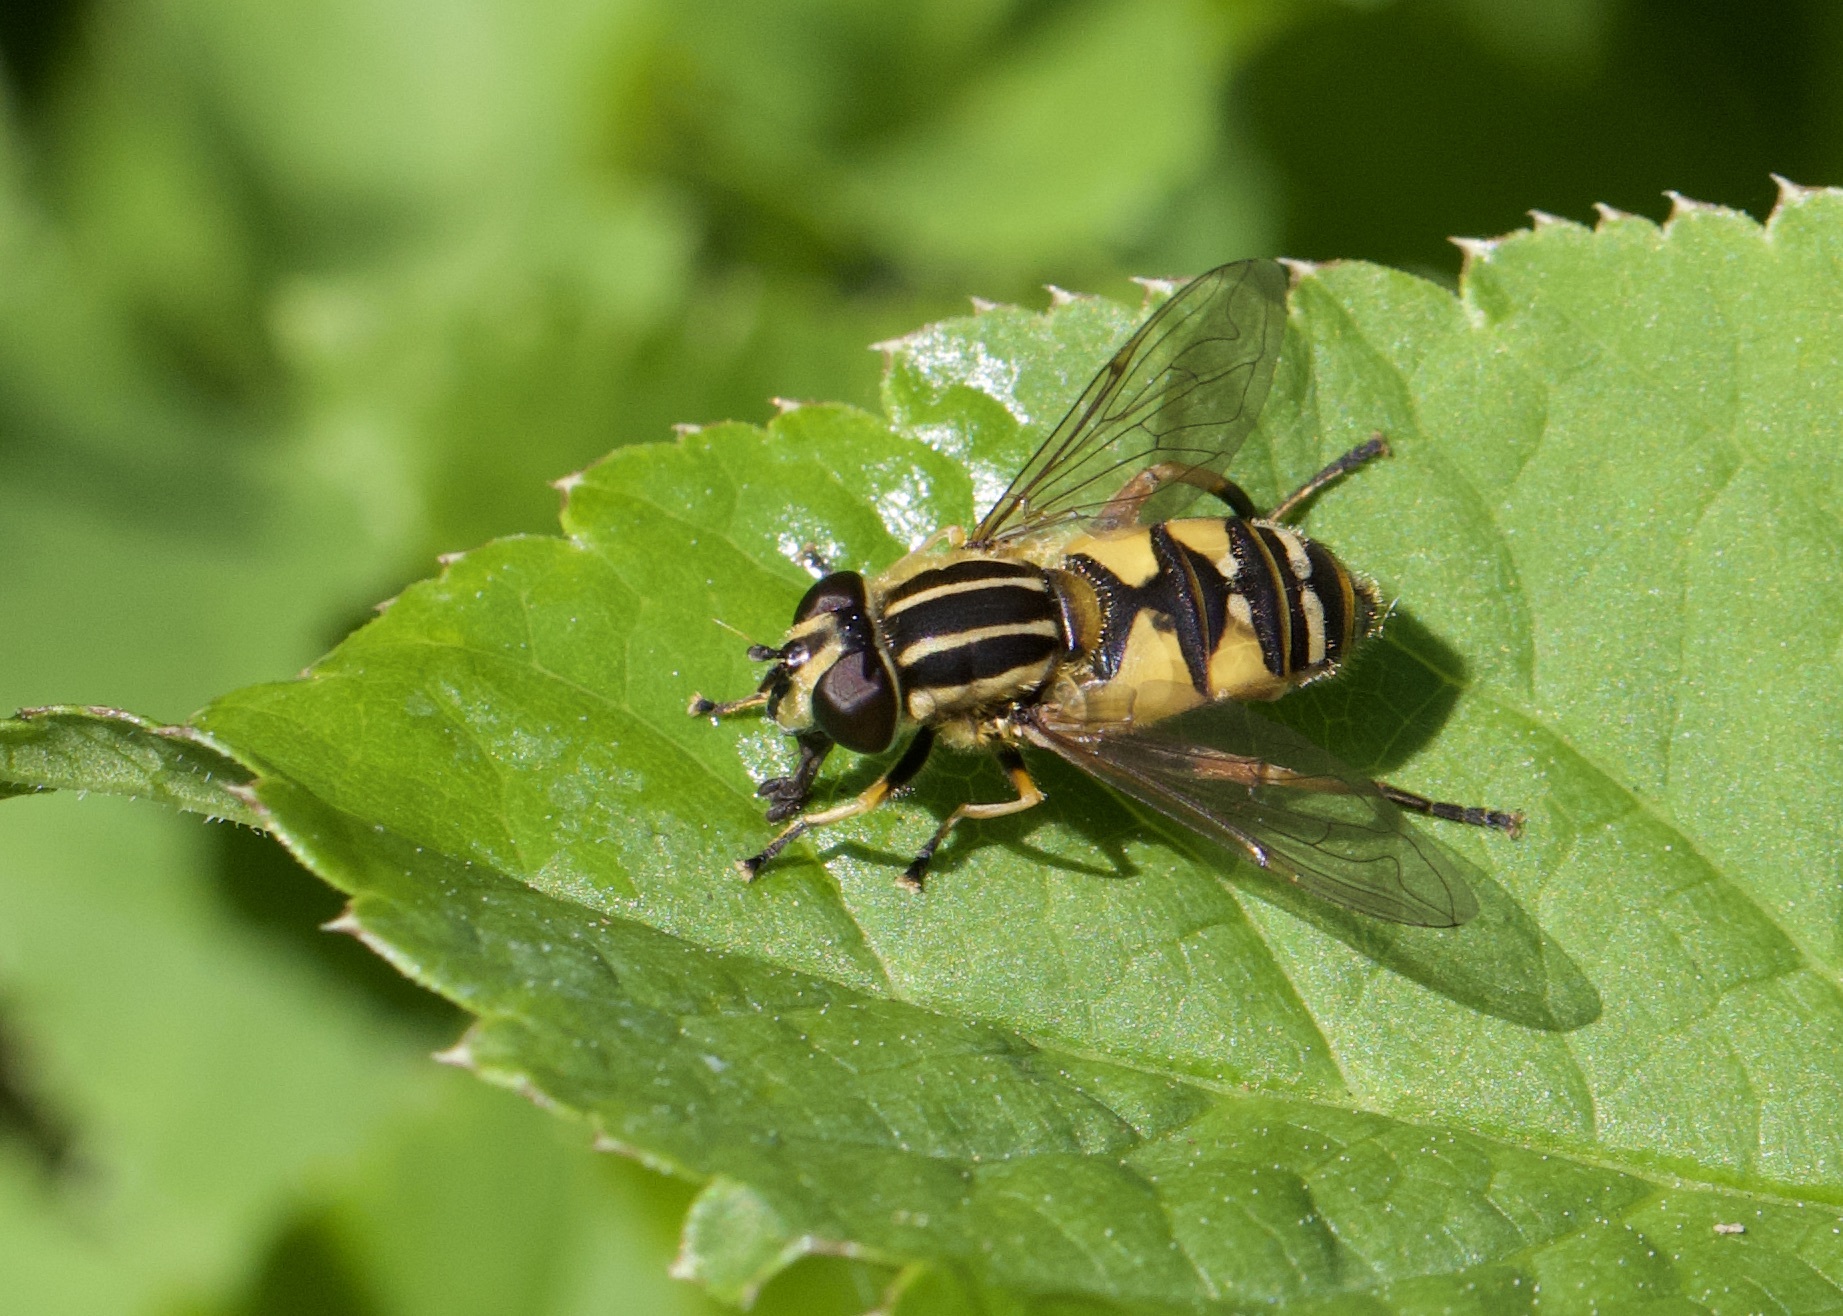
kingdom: Animalia
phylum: Arthropoda
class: Insecta
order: Diptera
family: Syrphidae
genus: Helophilus
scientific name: Helophilus pendulus
